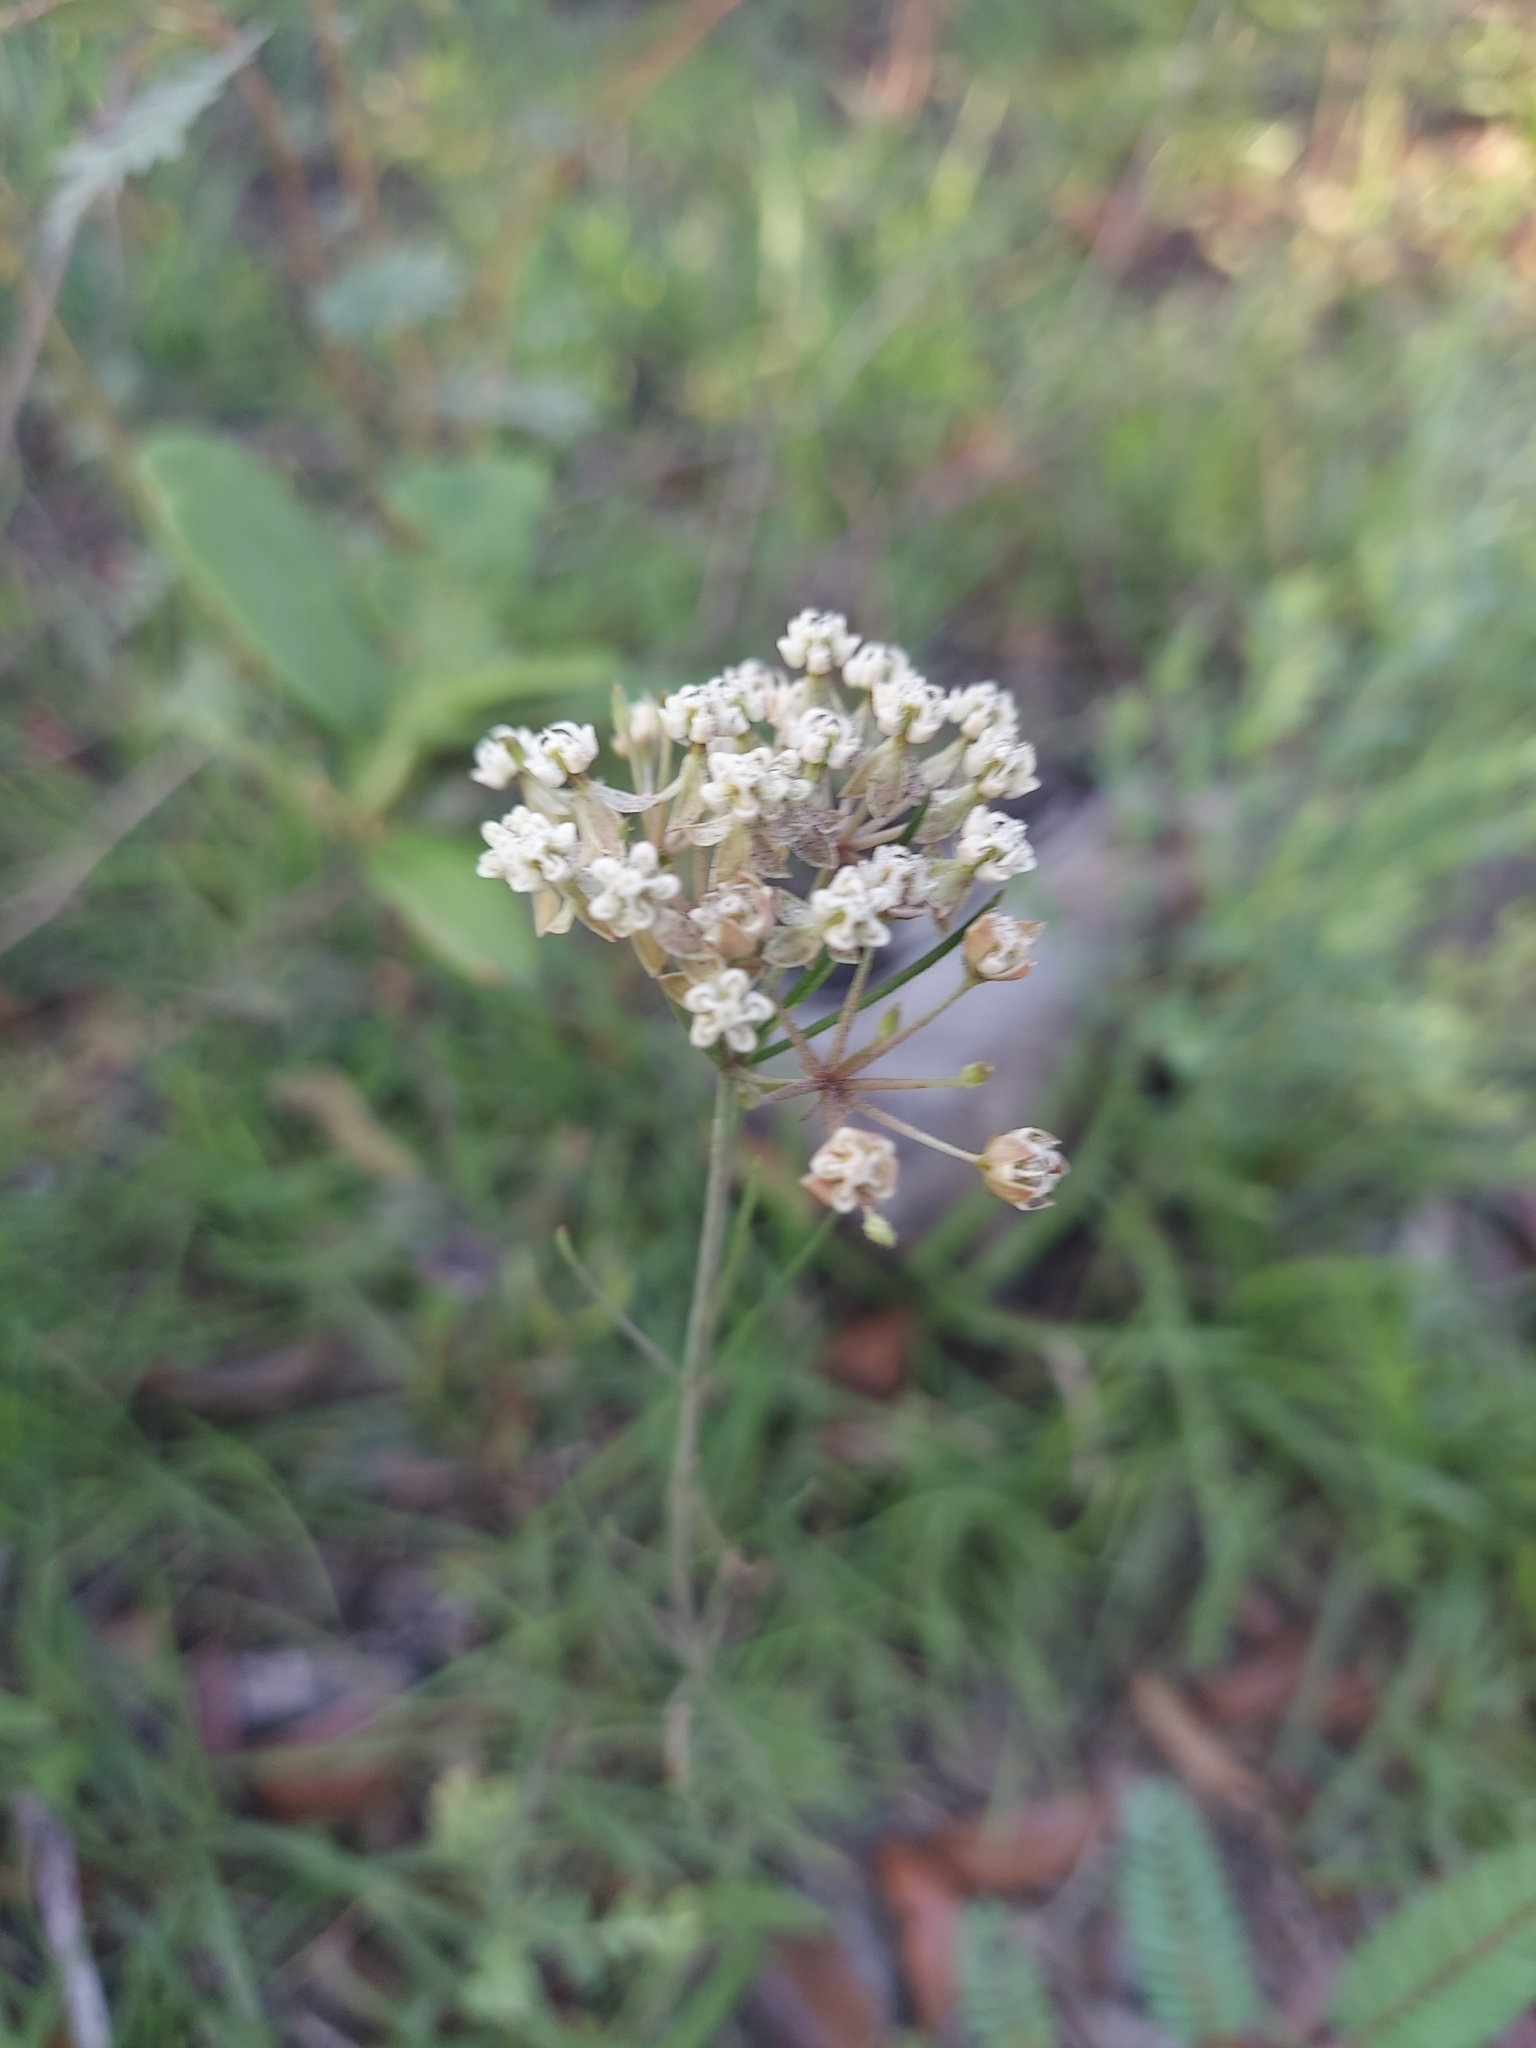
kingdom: Plantae
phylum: Tracheophyta
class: Magnoliopsida
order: Gentianales
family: Apocynaceae
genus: Asclepias
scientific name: Asclepias verticillata
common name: Eastern whorled milkweed
